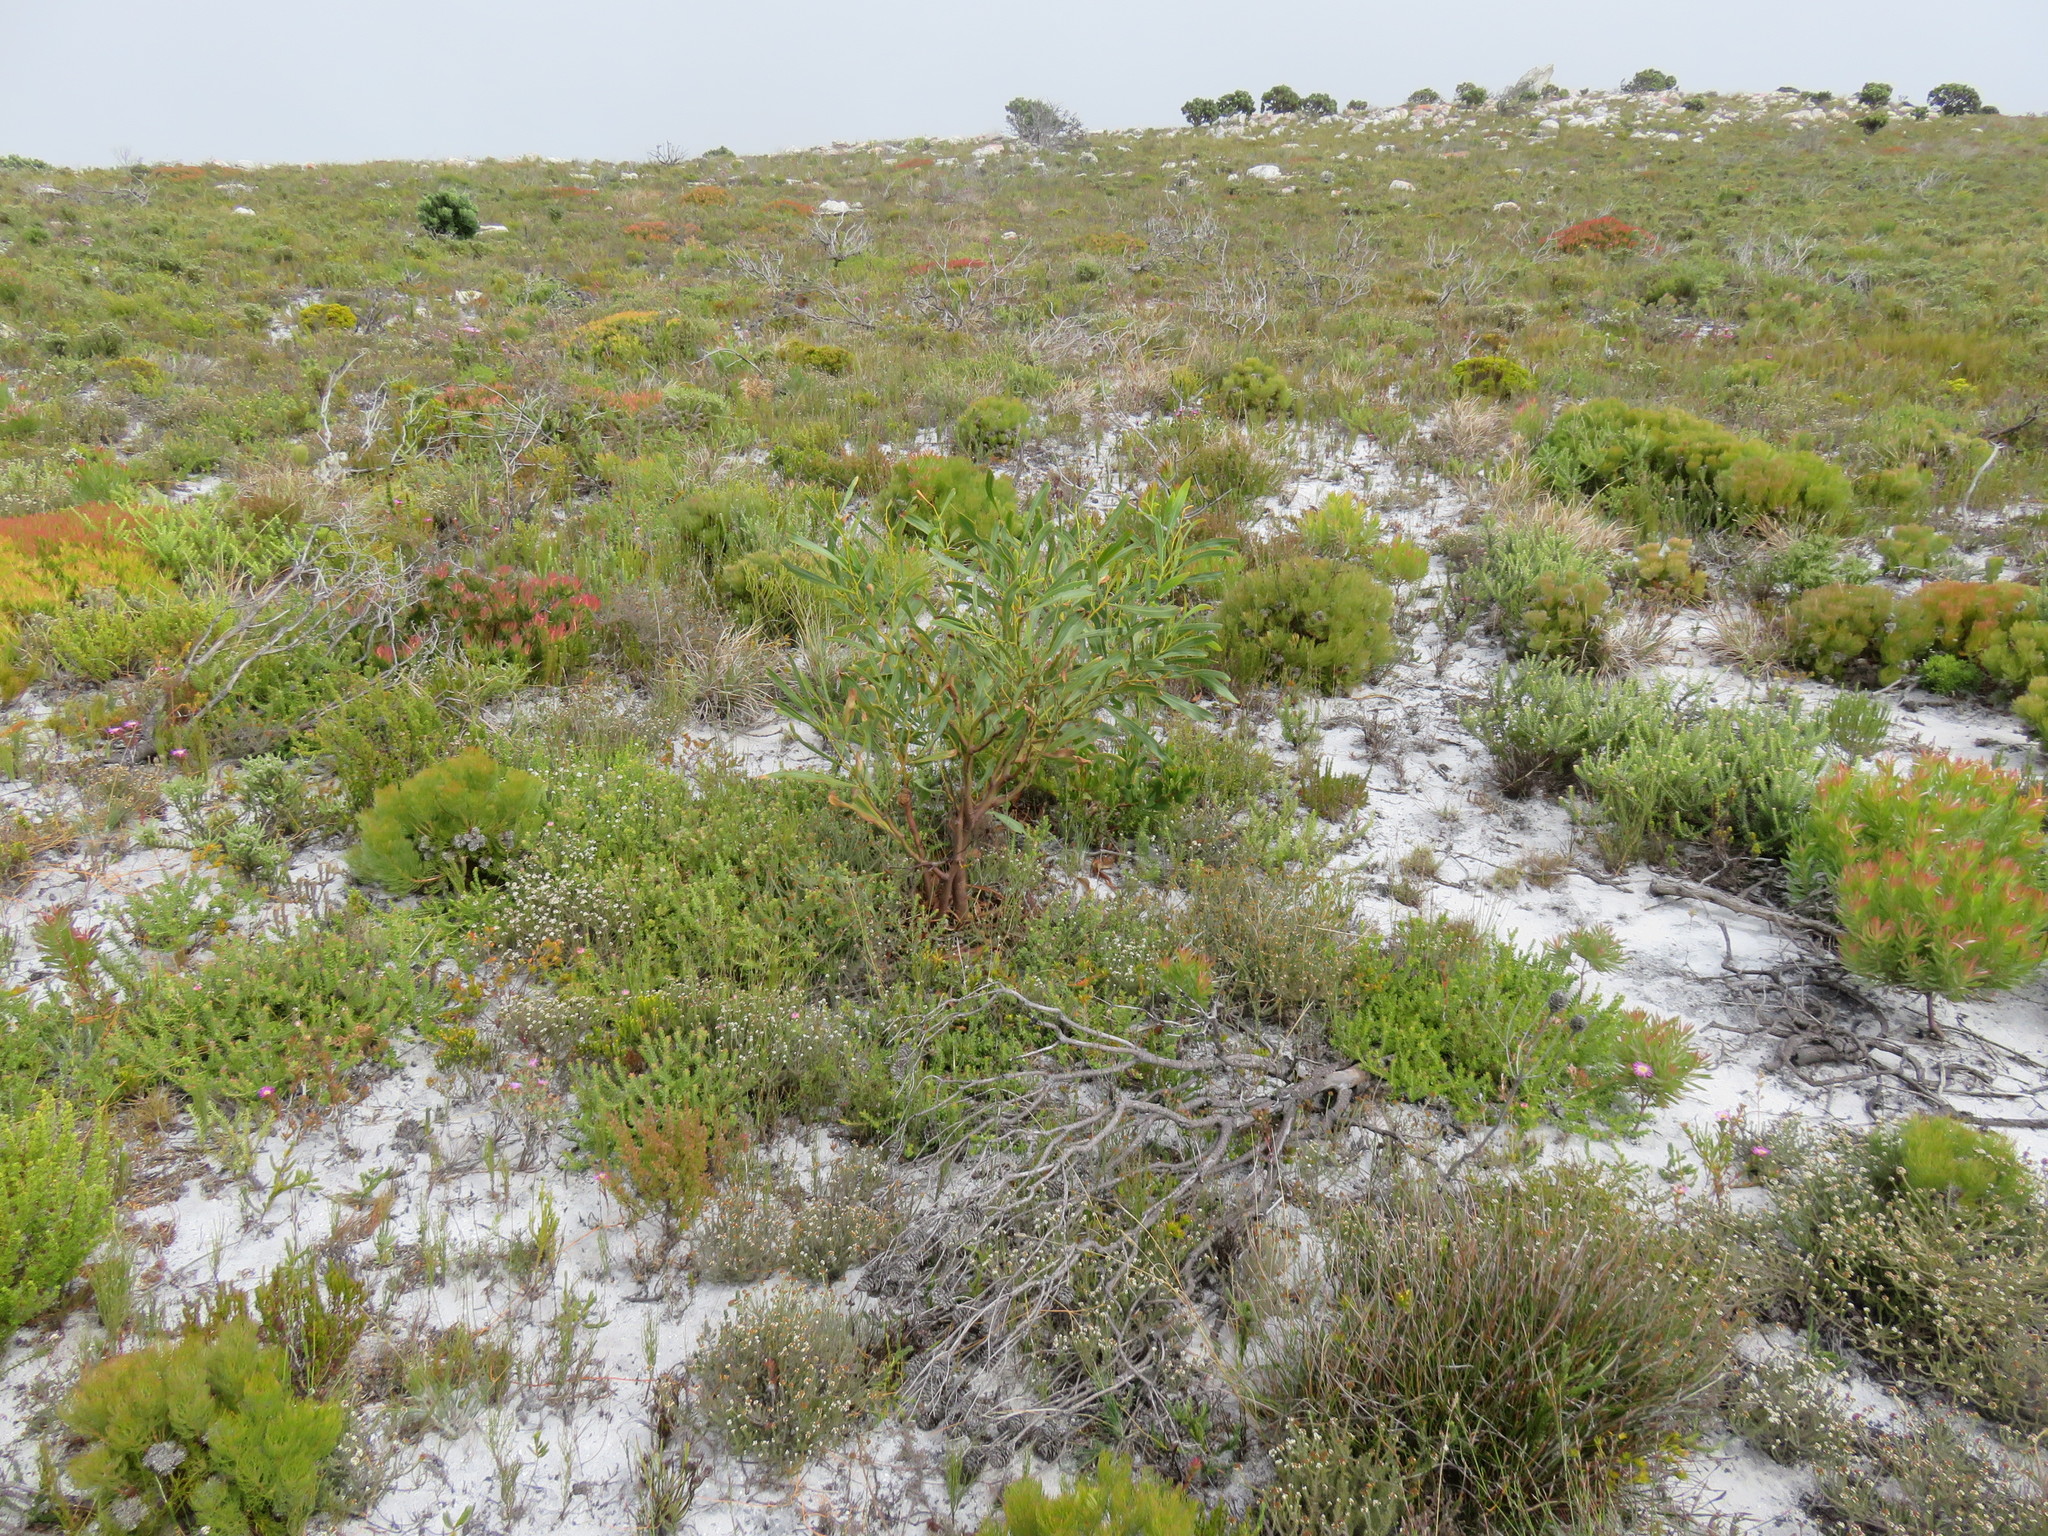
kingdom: Plantae
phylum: Tracheophyta
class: Magnoliopsida
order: Fabales
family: Fabaceae
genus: Acacia
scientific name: Acacia saligna
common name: Orange wattle
